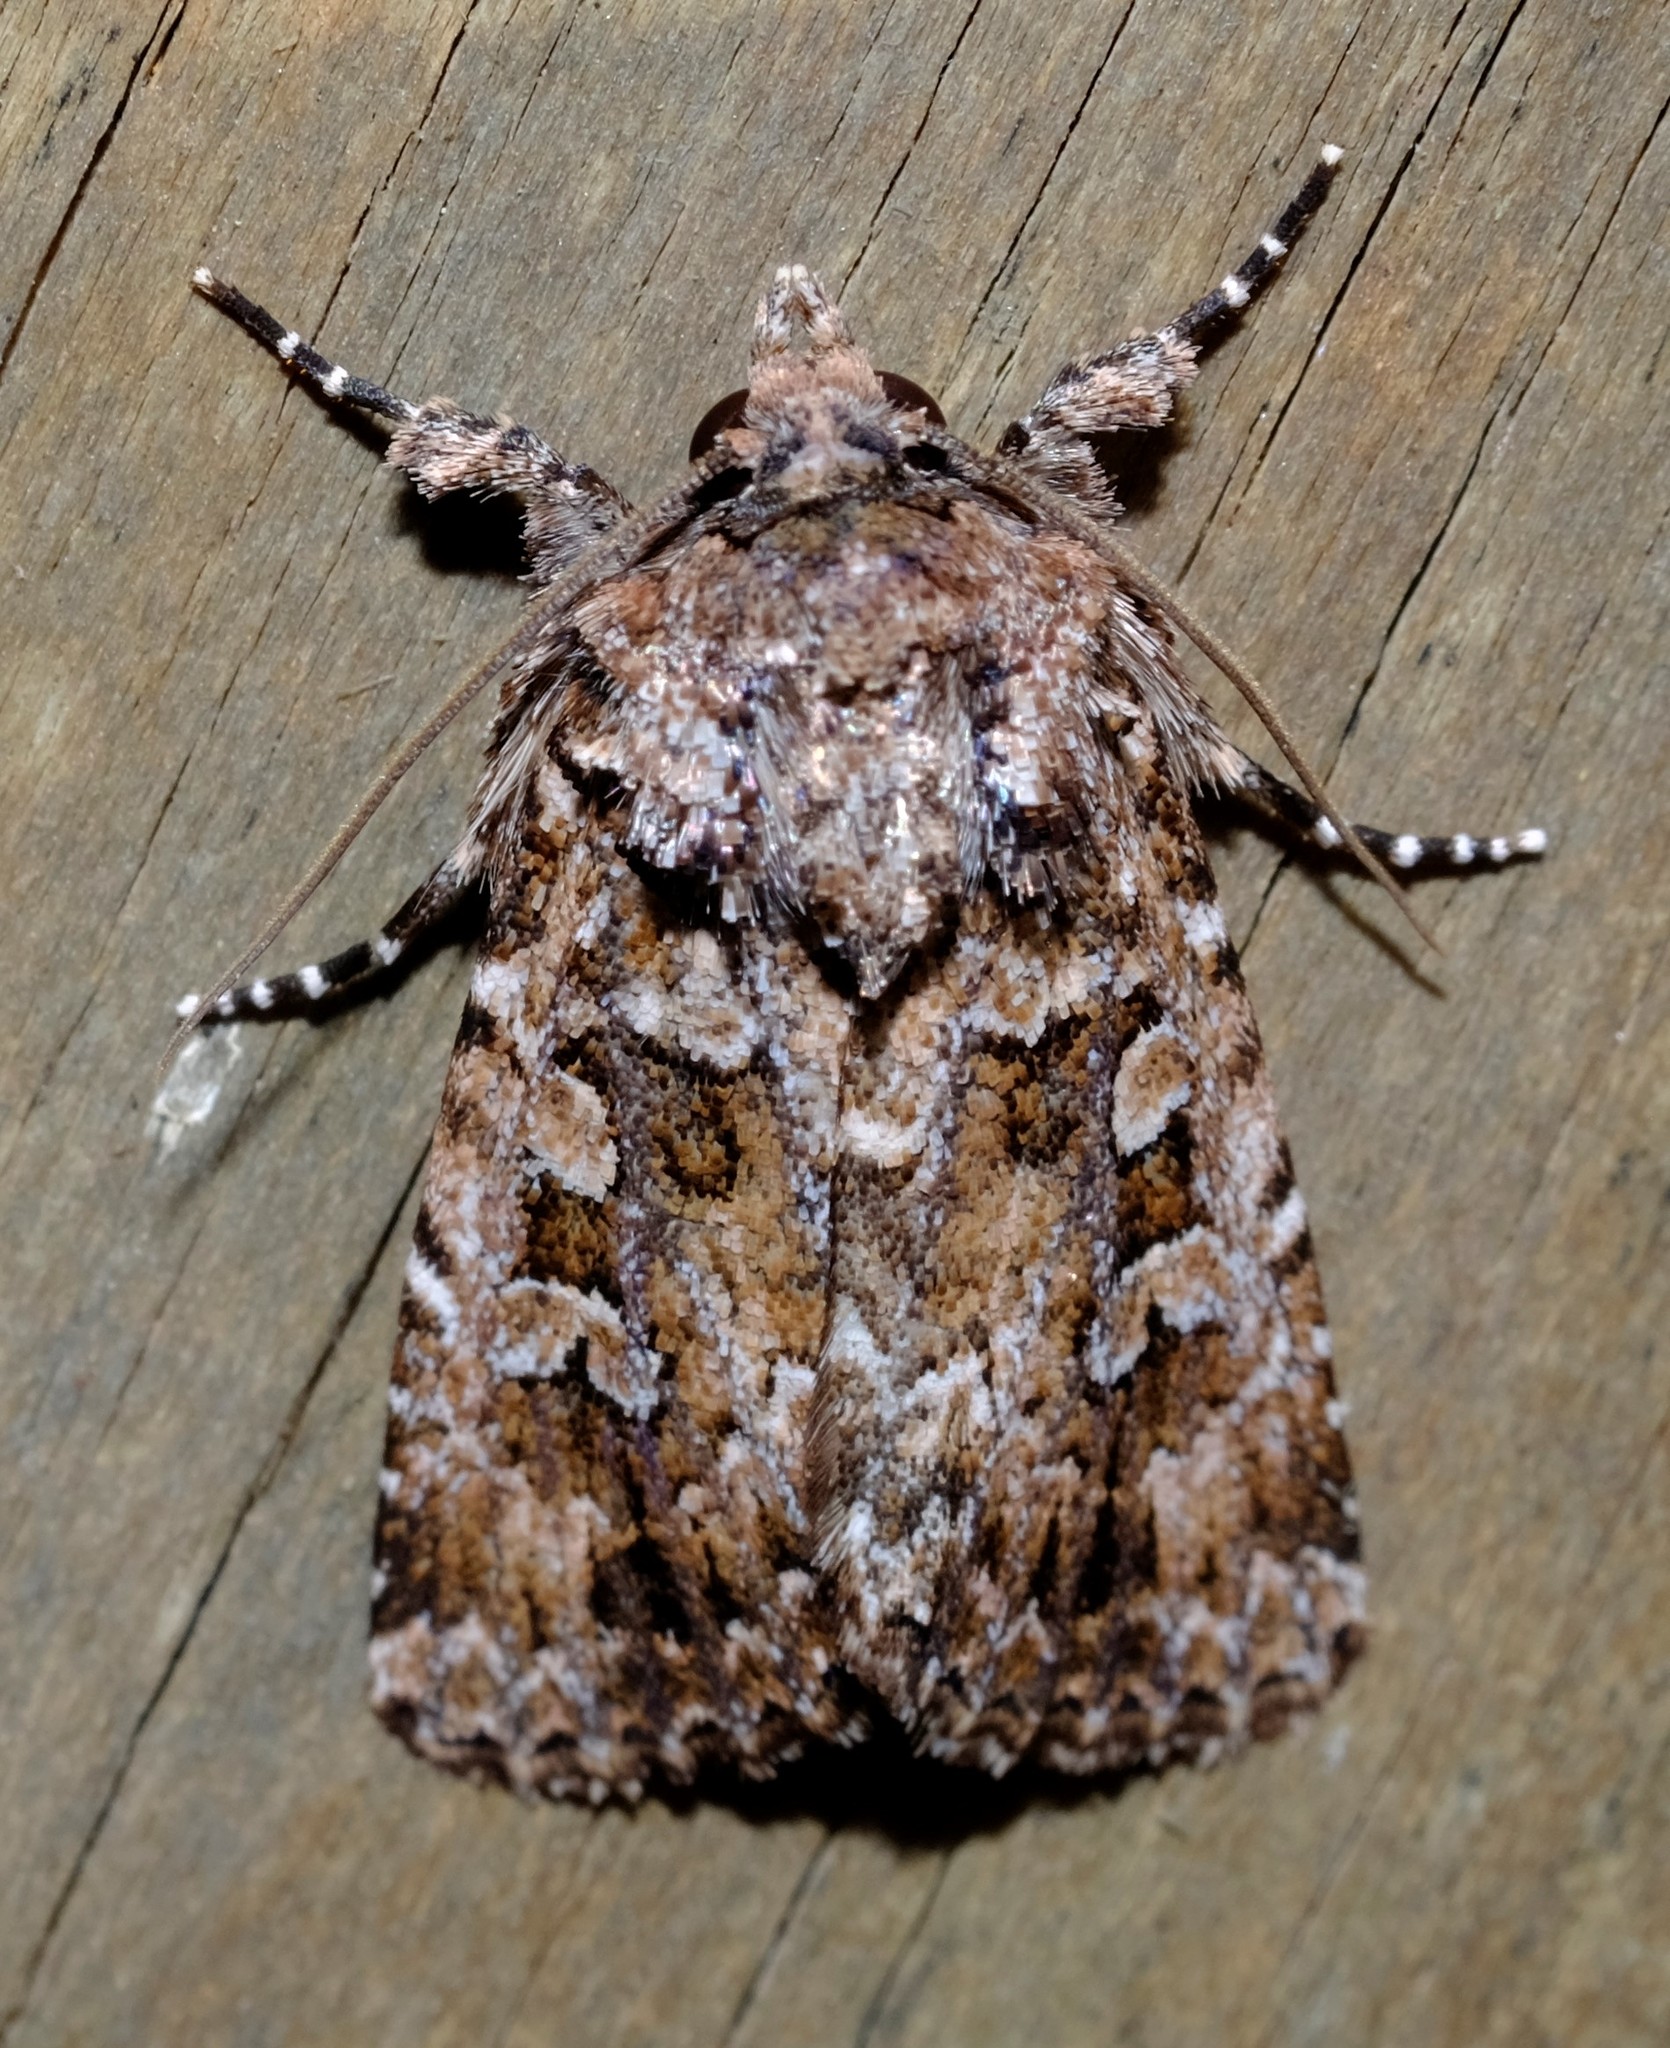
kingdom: Animalia
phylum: Arthropoda
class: Insecta
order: Lepidoptera
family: Noctuidae
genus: Ectopatria
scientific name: Ectopatria subrufescens
